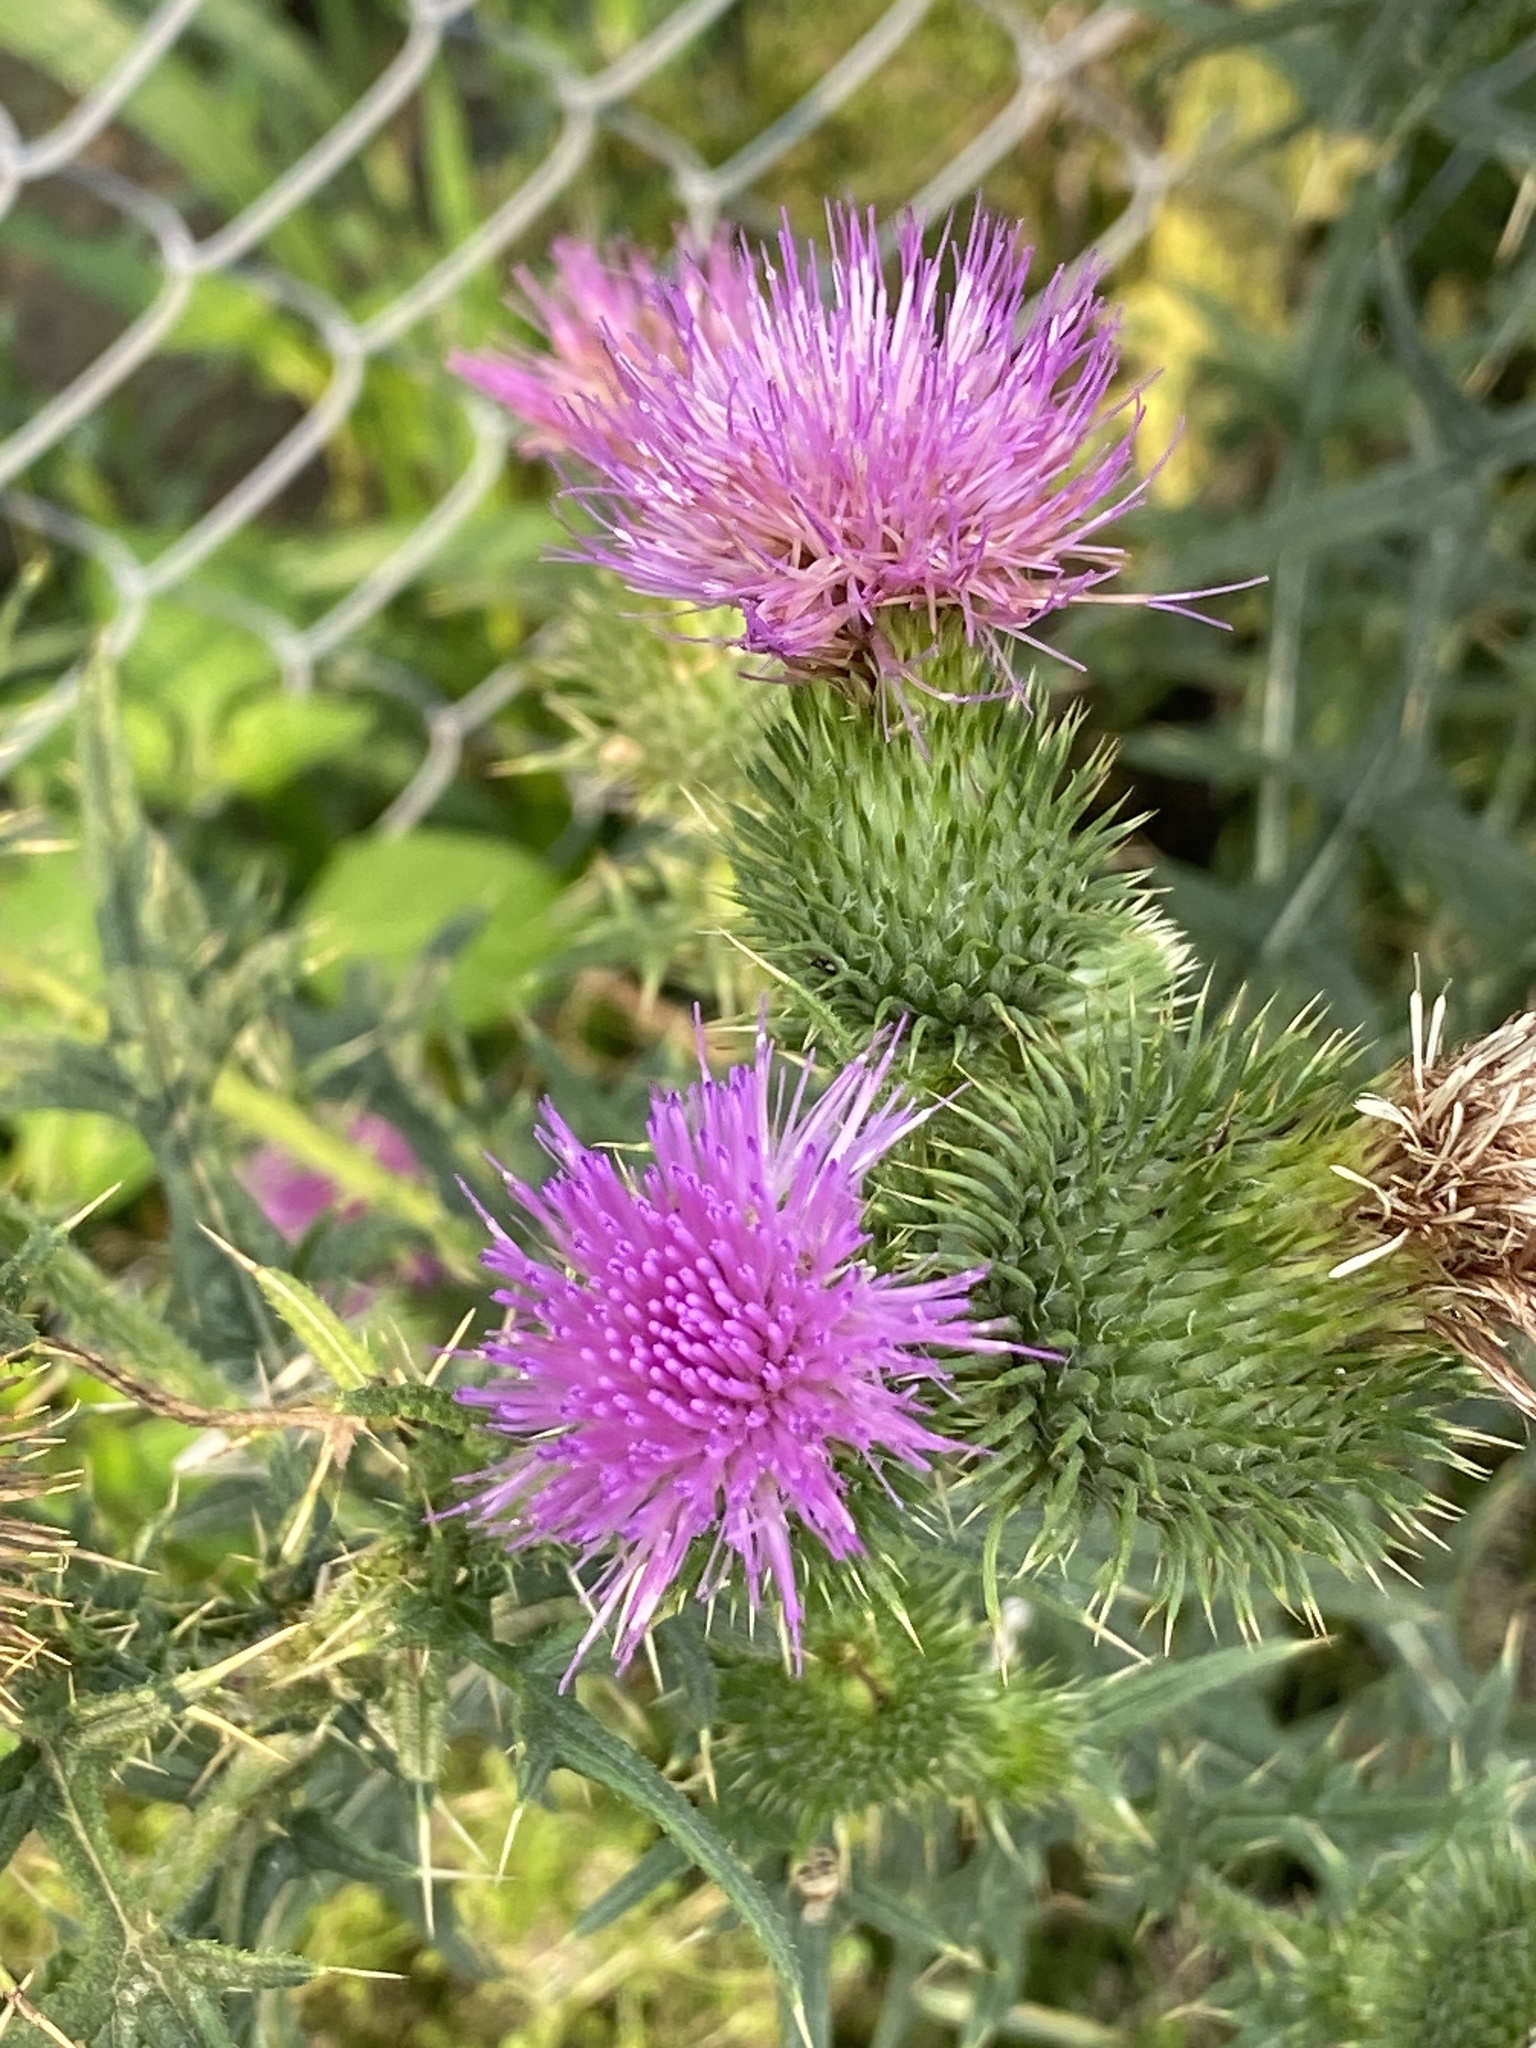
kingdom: Plantae
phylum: Tracheophyta
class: Magnoliopsida
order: Asterales
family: Asteraceae
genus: Cirsium
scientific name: Cirsium vulgare
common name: Bull thistle
